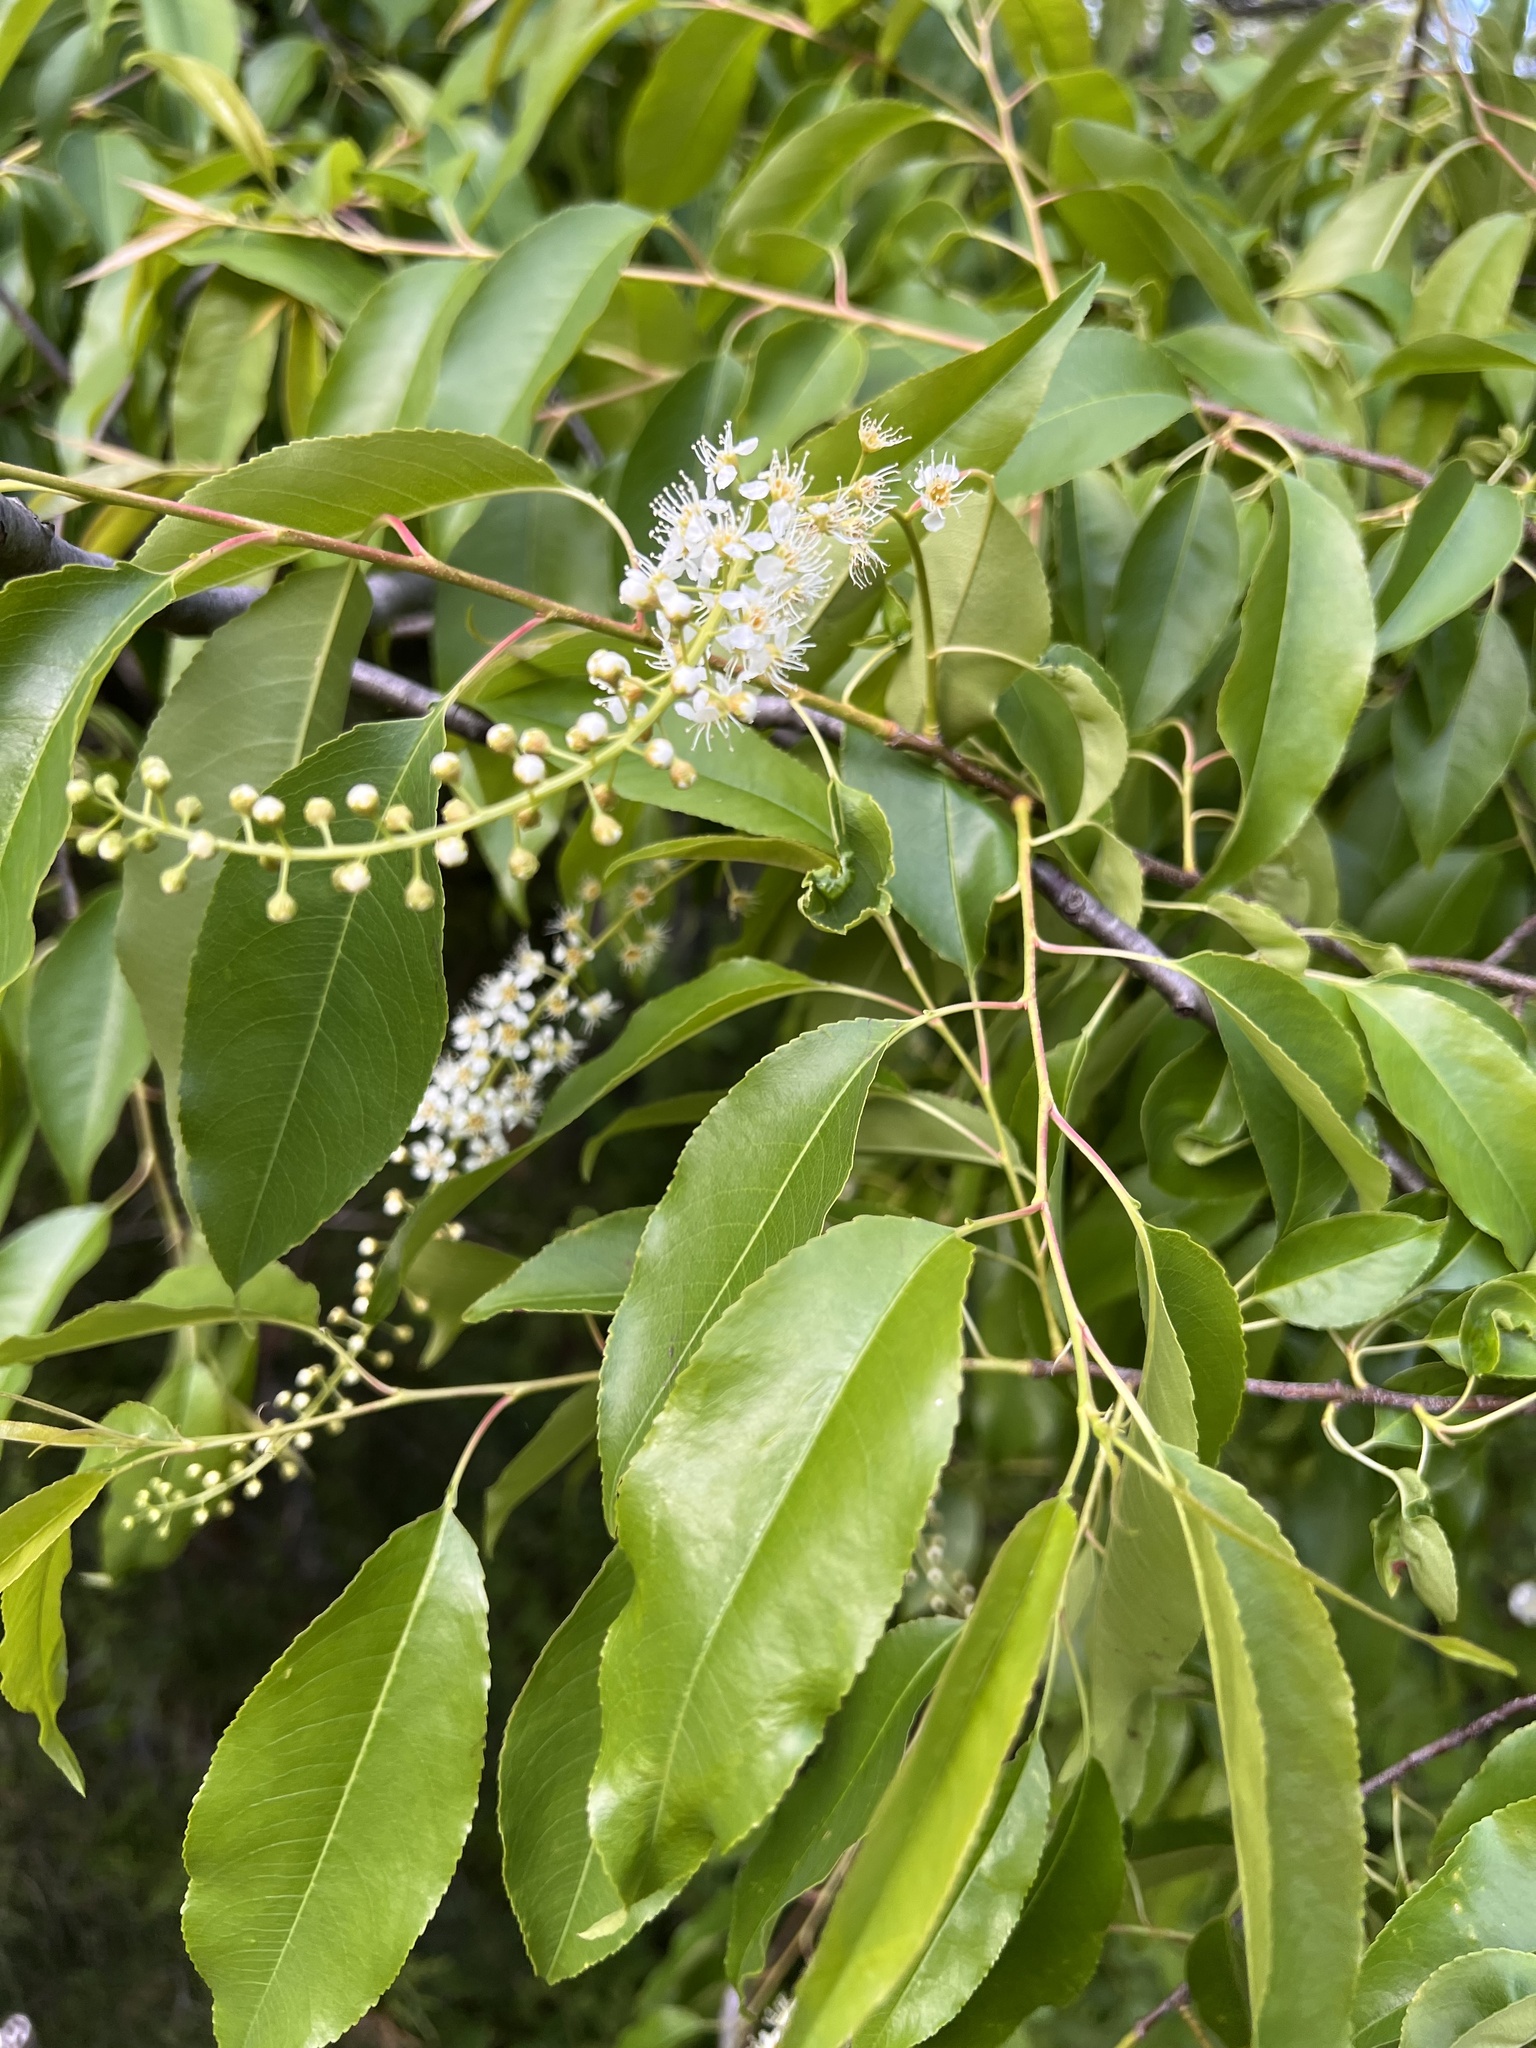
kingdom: Plantae
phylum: Tracheophyta
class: Magnoliopsida
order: Rosales
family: Rosaceae
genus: Prunus
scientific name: Prunus serotina
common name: Black cherry
